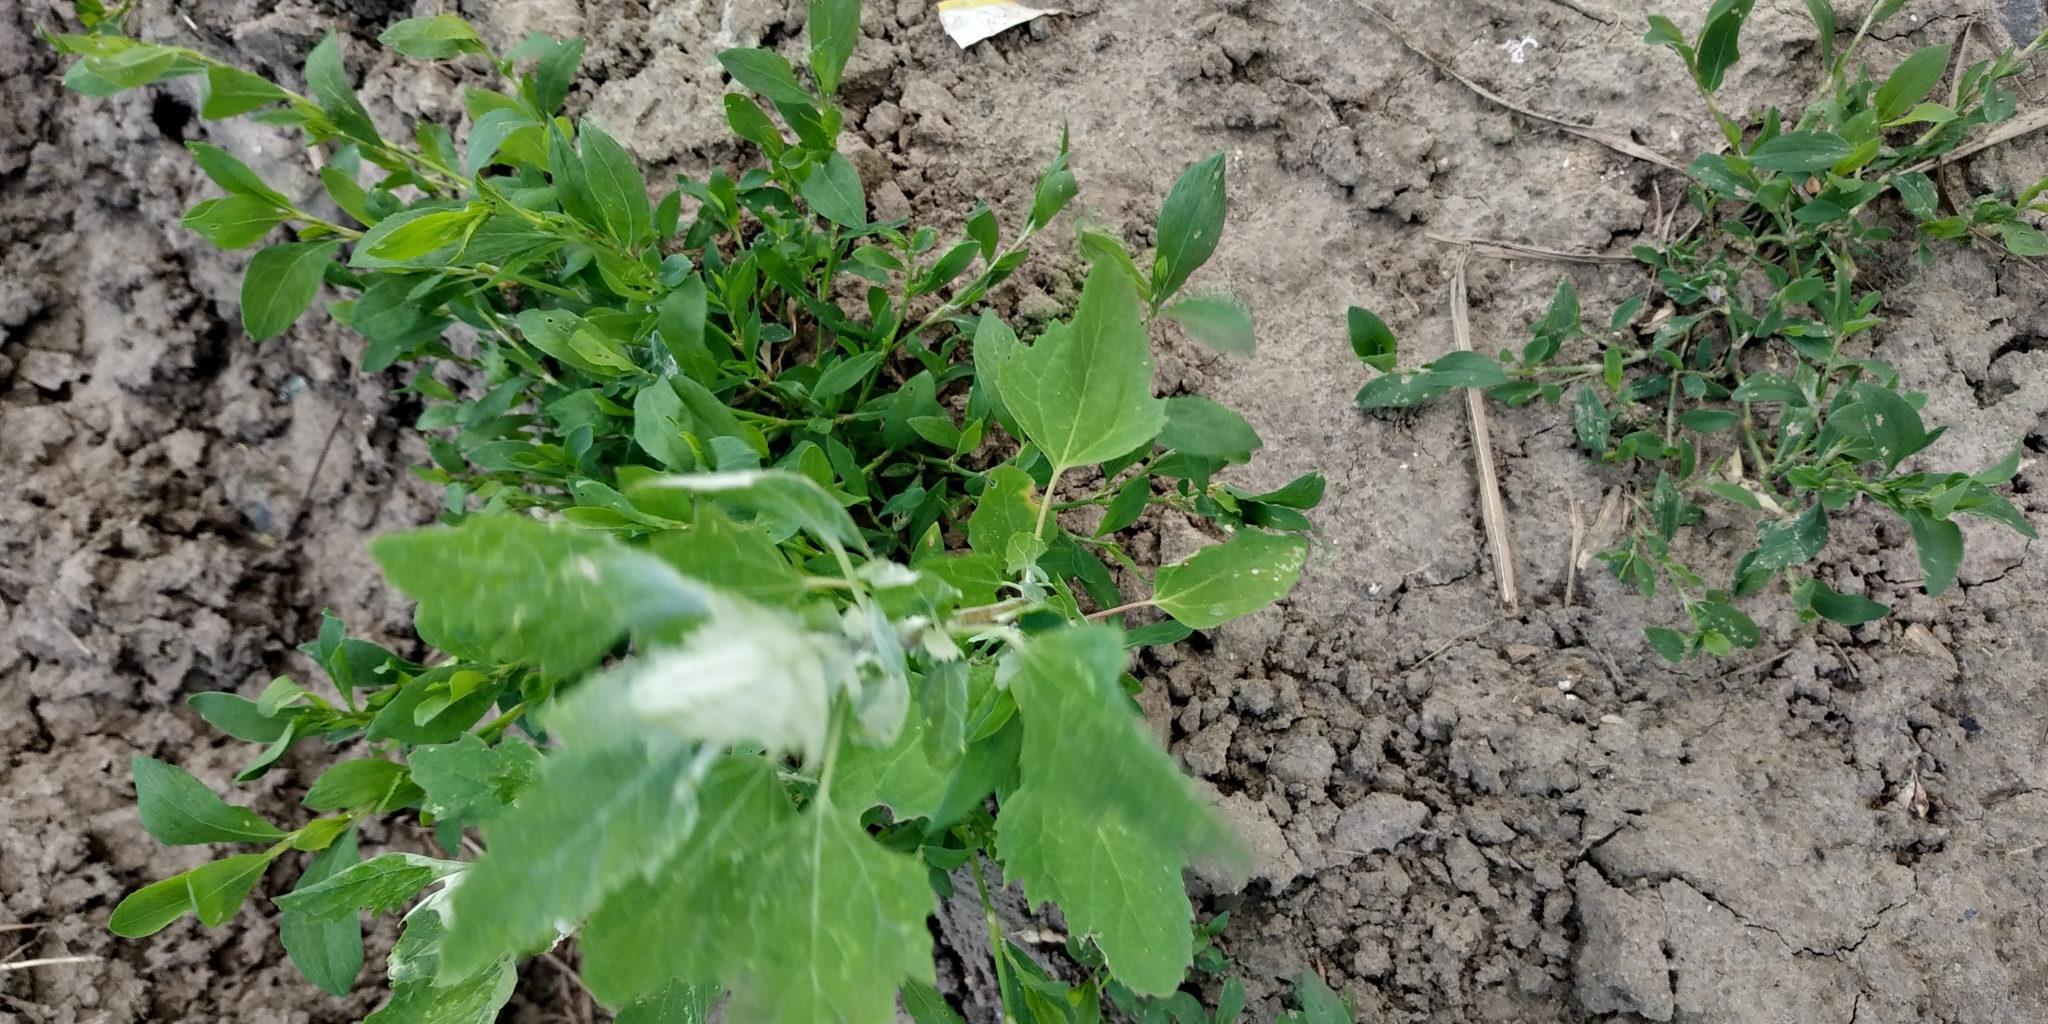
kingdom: Plantae
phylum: Tracheophyta
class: Magnoliopsida
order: Caryophyllales
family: Amaranthaceae
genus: Chenopodium
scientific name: Chenopodium album
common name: Fat-hen
